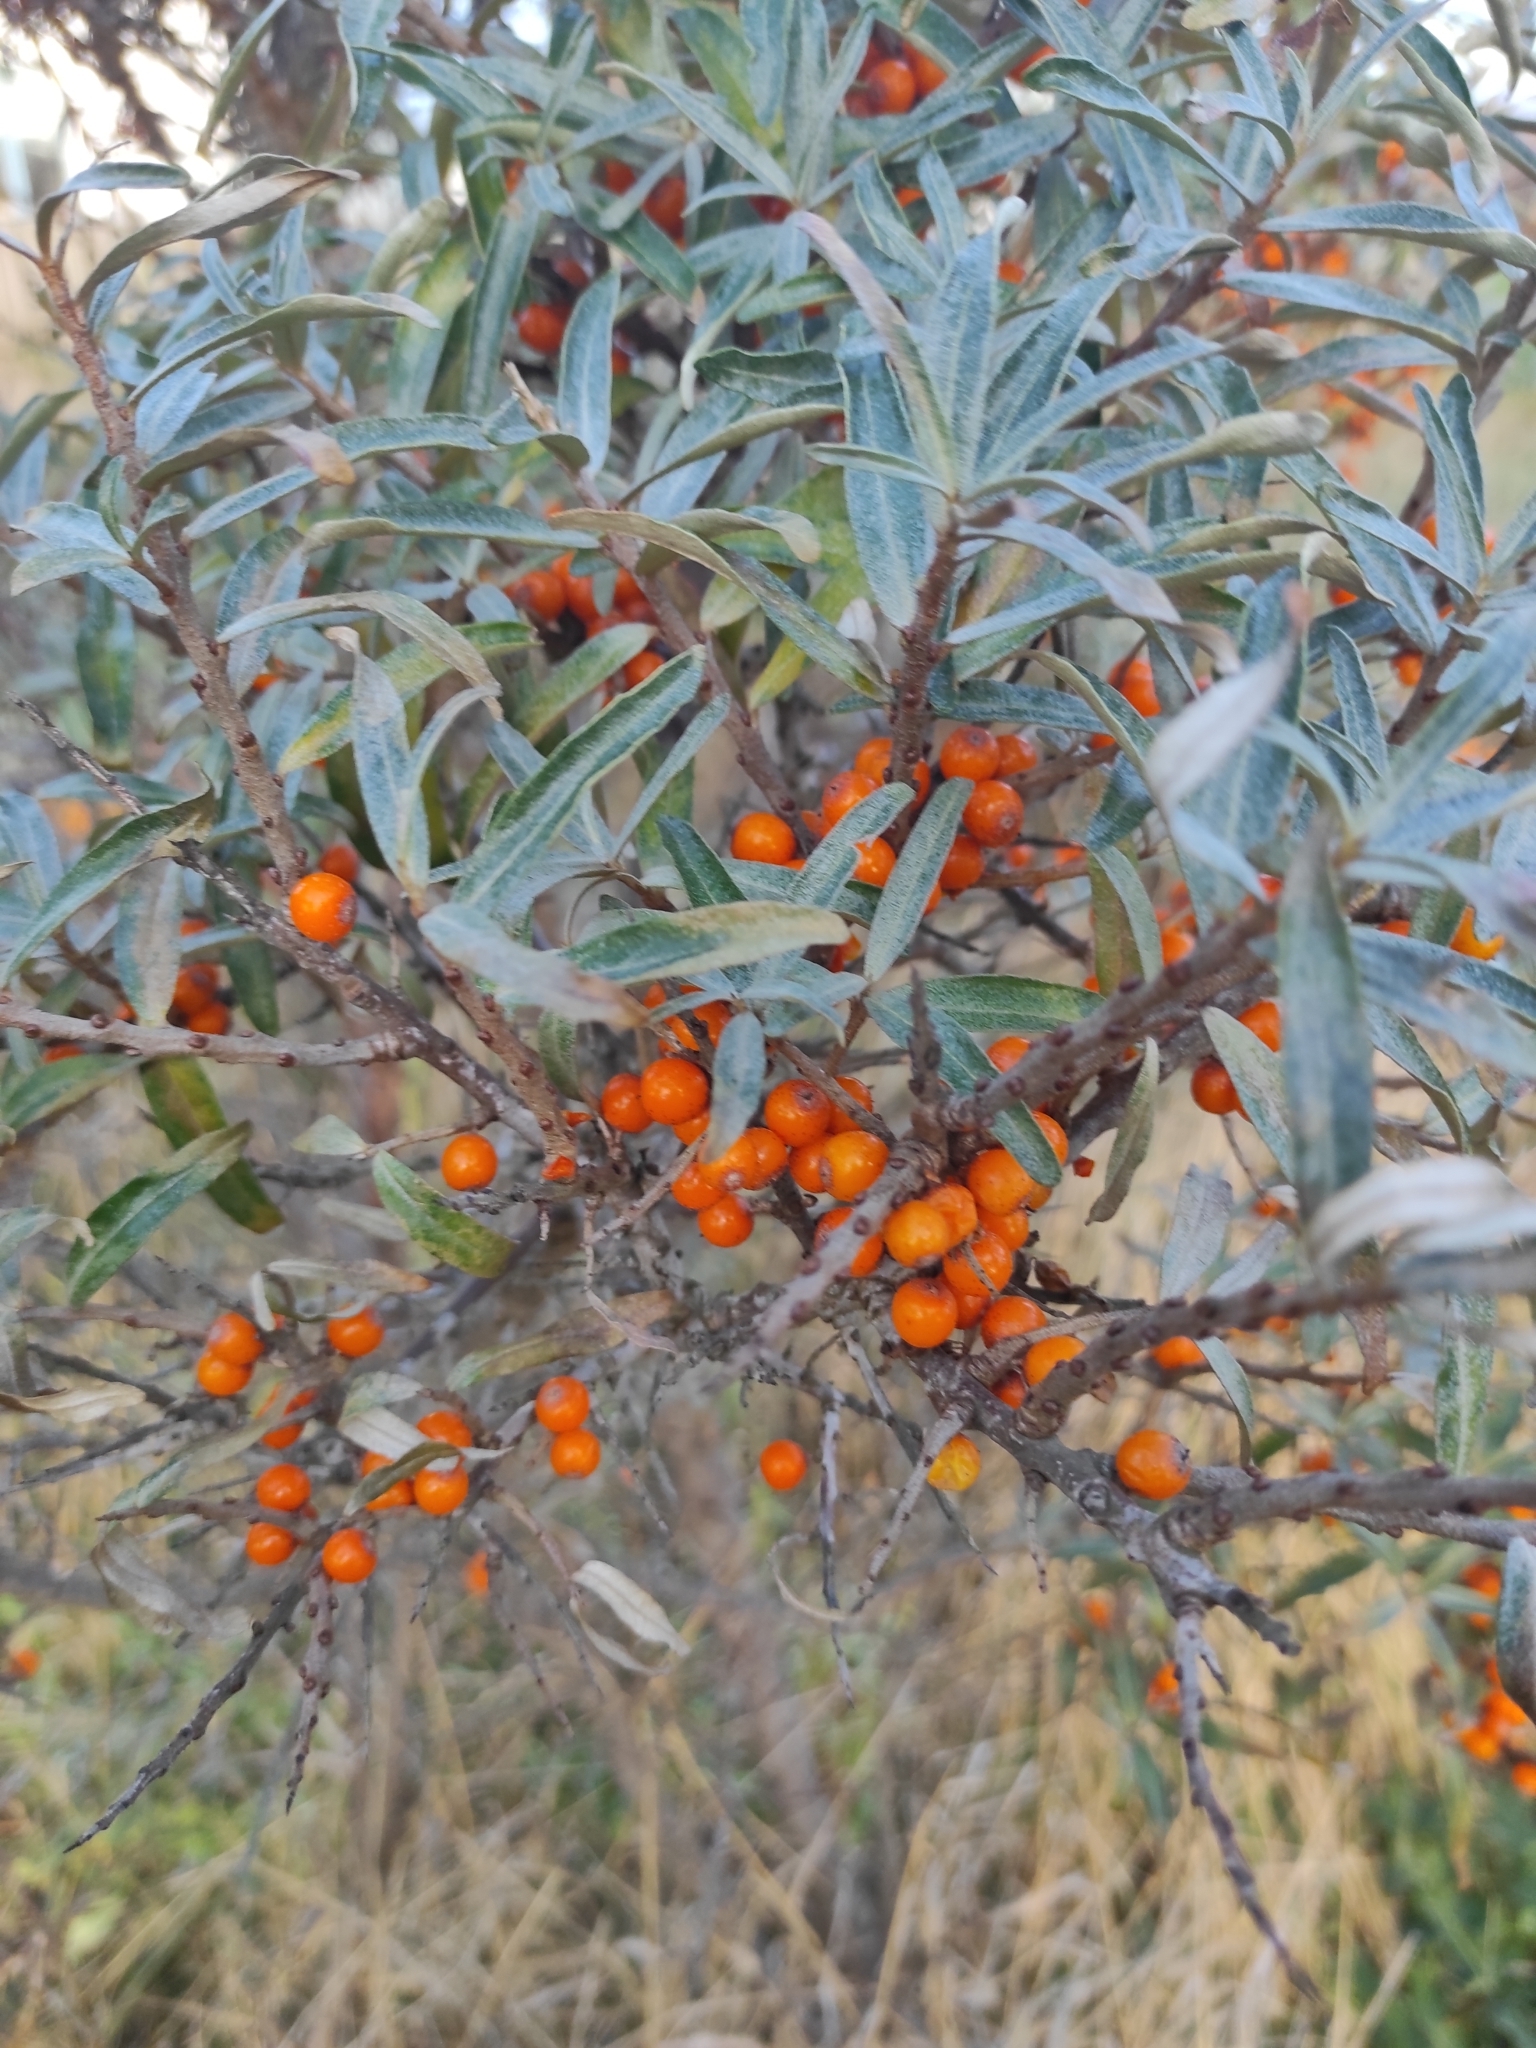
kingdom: Plantae
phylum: Tracheophyta
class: Magnoliopsida
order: Rosales
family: Elaeagnaceae
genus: Hippophae
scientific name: Hippophae rhamnoides
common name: Sea-buckthorn
